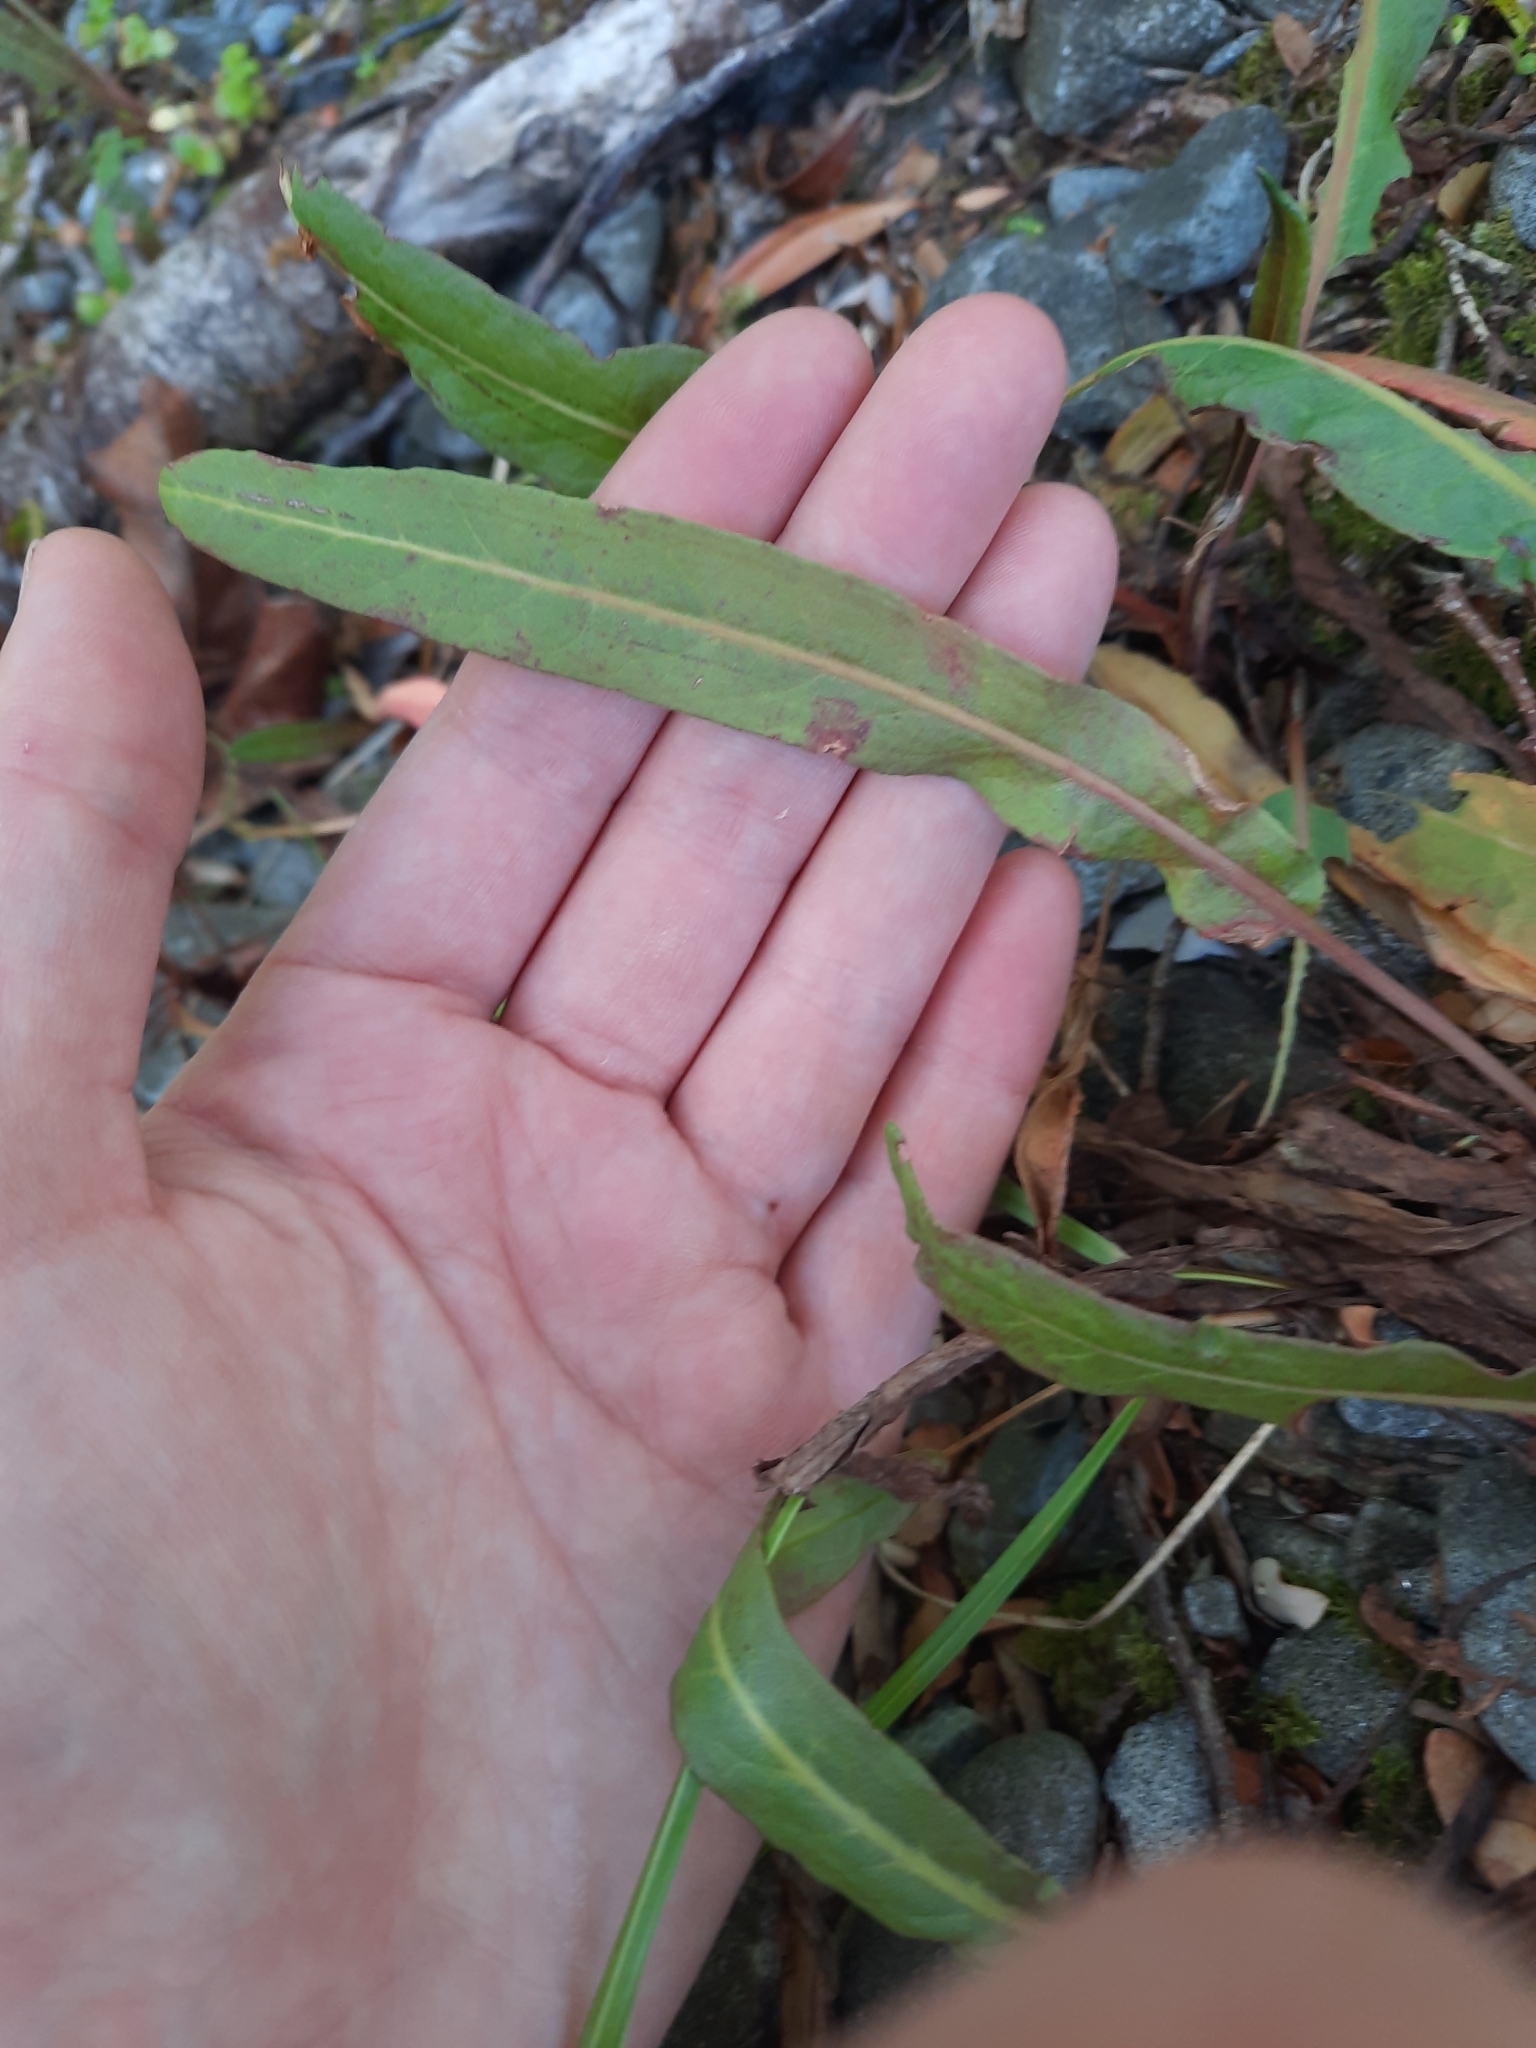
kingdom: Plantae
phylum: Tracheophyta
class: Magnoliopsida
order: Caryophyllales
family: Polygonaceae
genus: Rumex
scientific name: Rumex flexuosus
